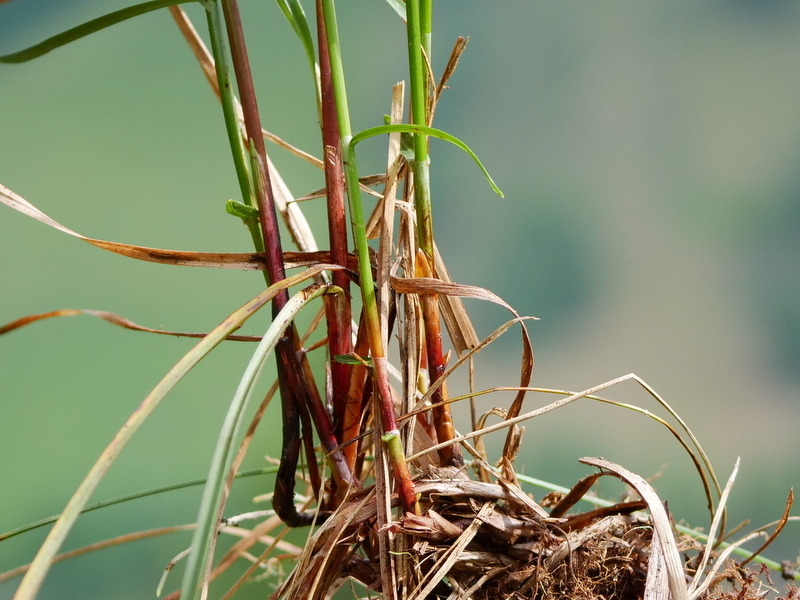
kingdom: Plantae
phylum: Tracheophyta
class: Liliopsida
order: Poales
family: Cyperaceae
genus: Carex
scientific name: Carex ferruginea
